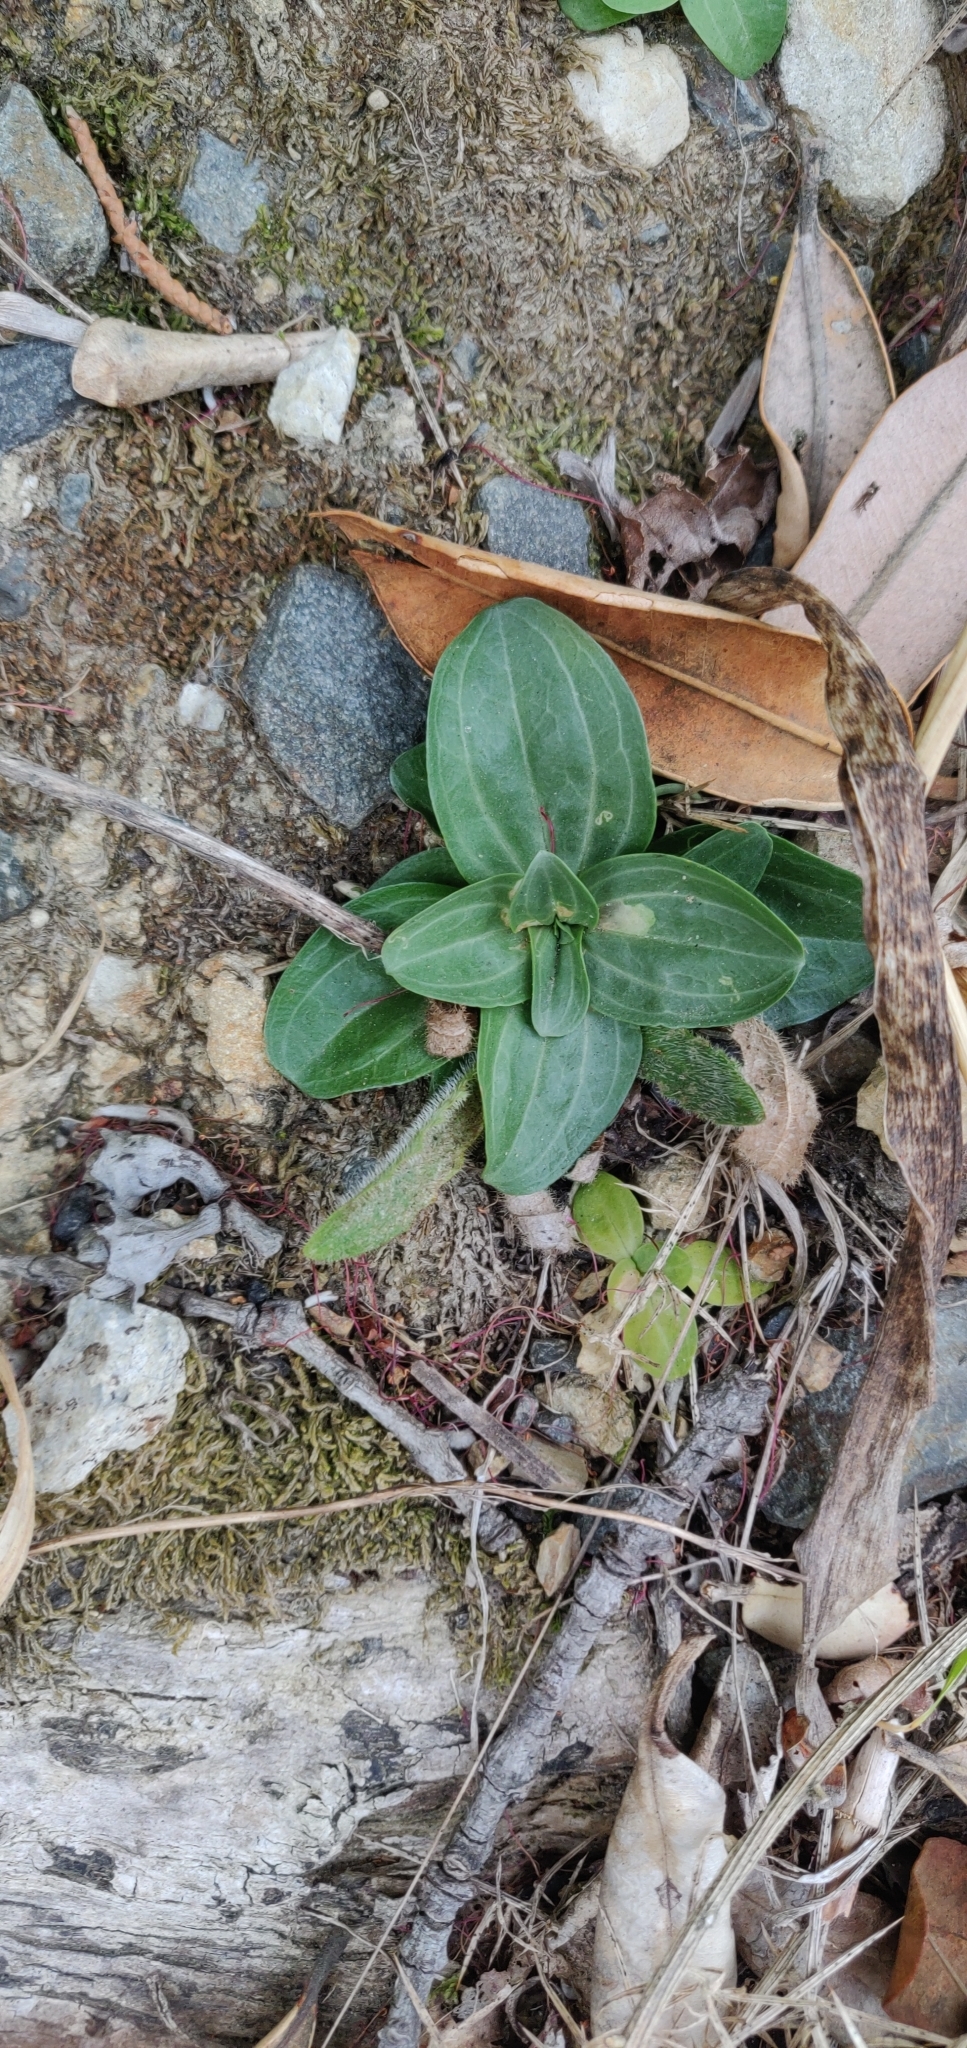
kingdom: Plantae
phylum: Tracheophyta
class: Magnoliopsida
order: Lamiales
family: Plantaginaceae
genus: Plantago
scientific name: Plantago major
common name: Common plantain
